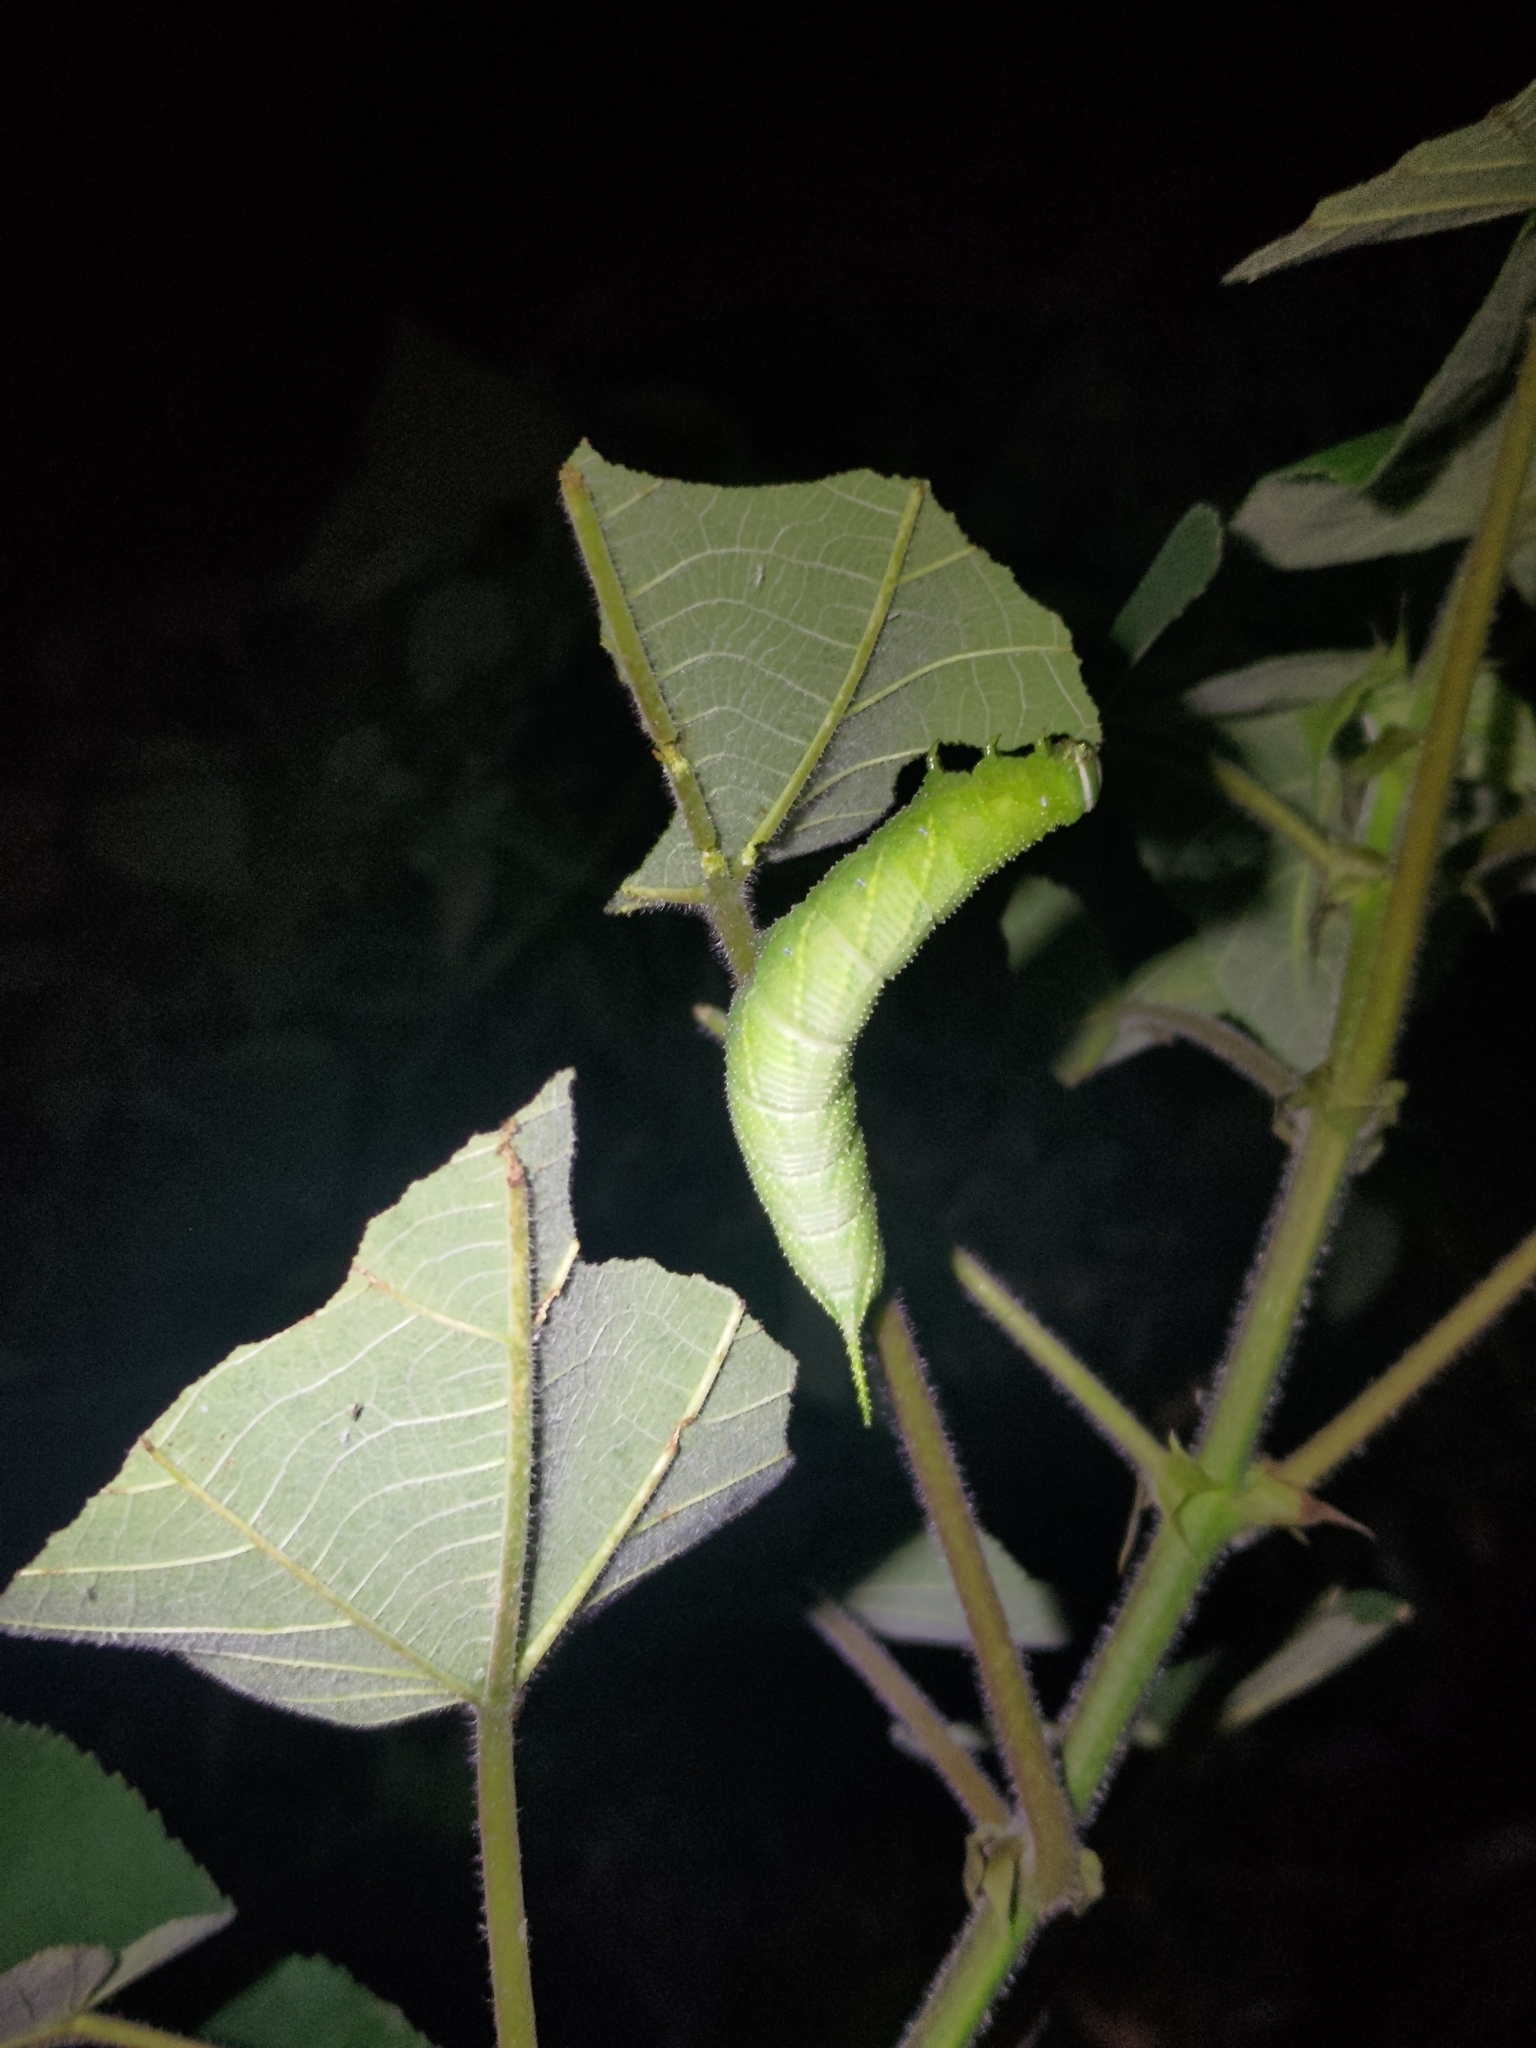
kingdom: Animalia
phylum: Arthropoda
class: Insecta
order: Lepidoptera
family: Sphingidae
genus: Parum
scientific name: Parum colligata
